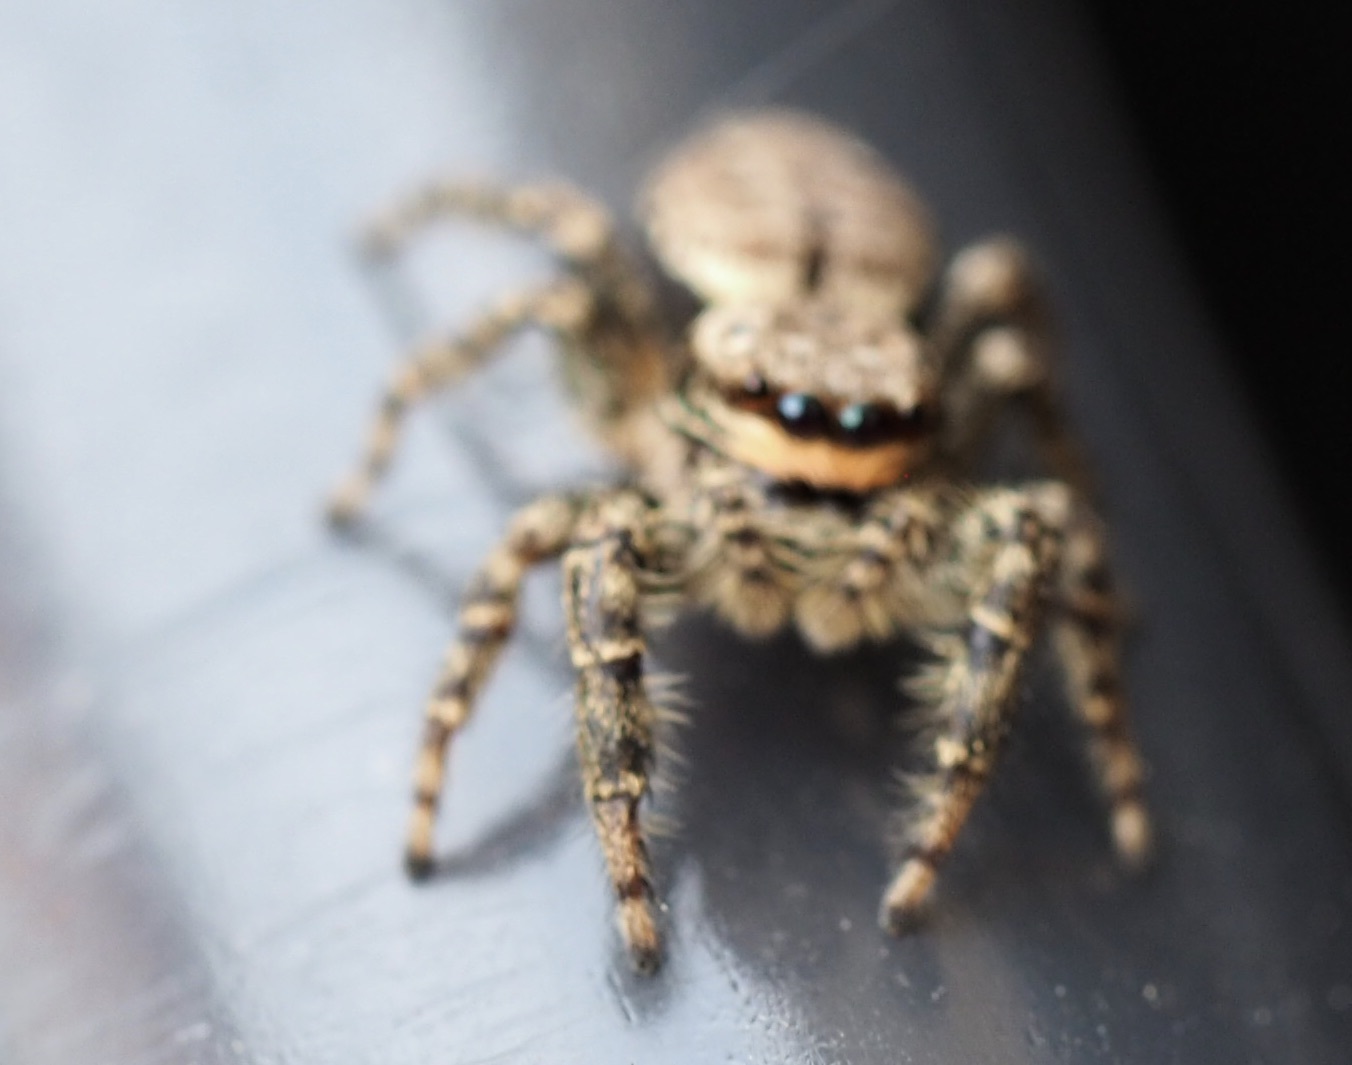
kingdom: Animalia
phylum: Arthropoda
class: Arachnida
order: Araneae
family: Salticidae
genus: Marpissa
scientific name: Marpissa muscosa
